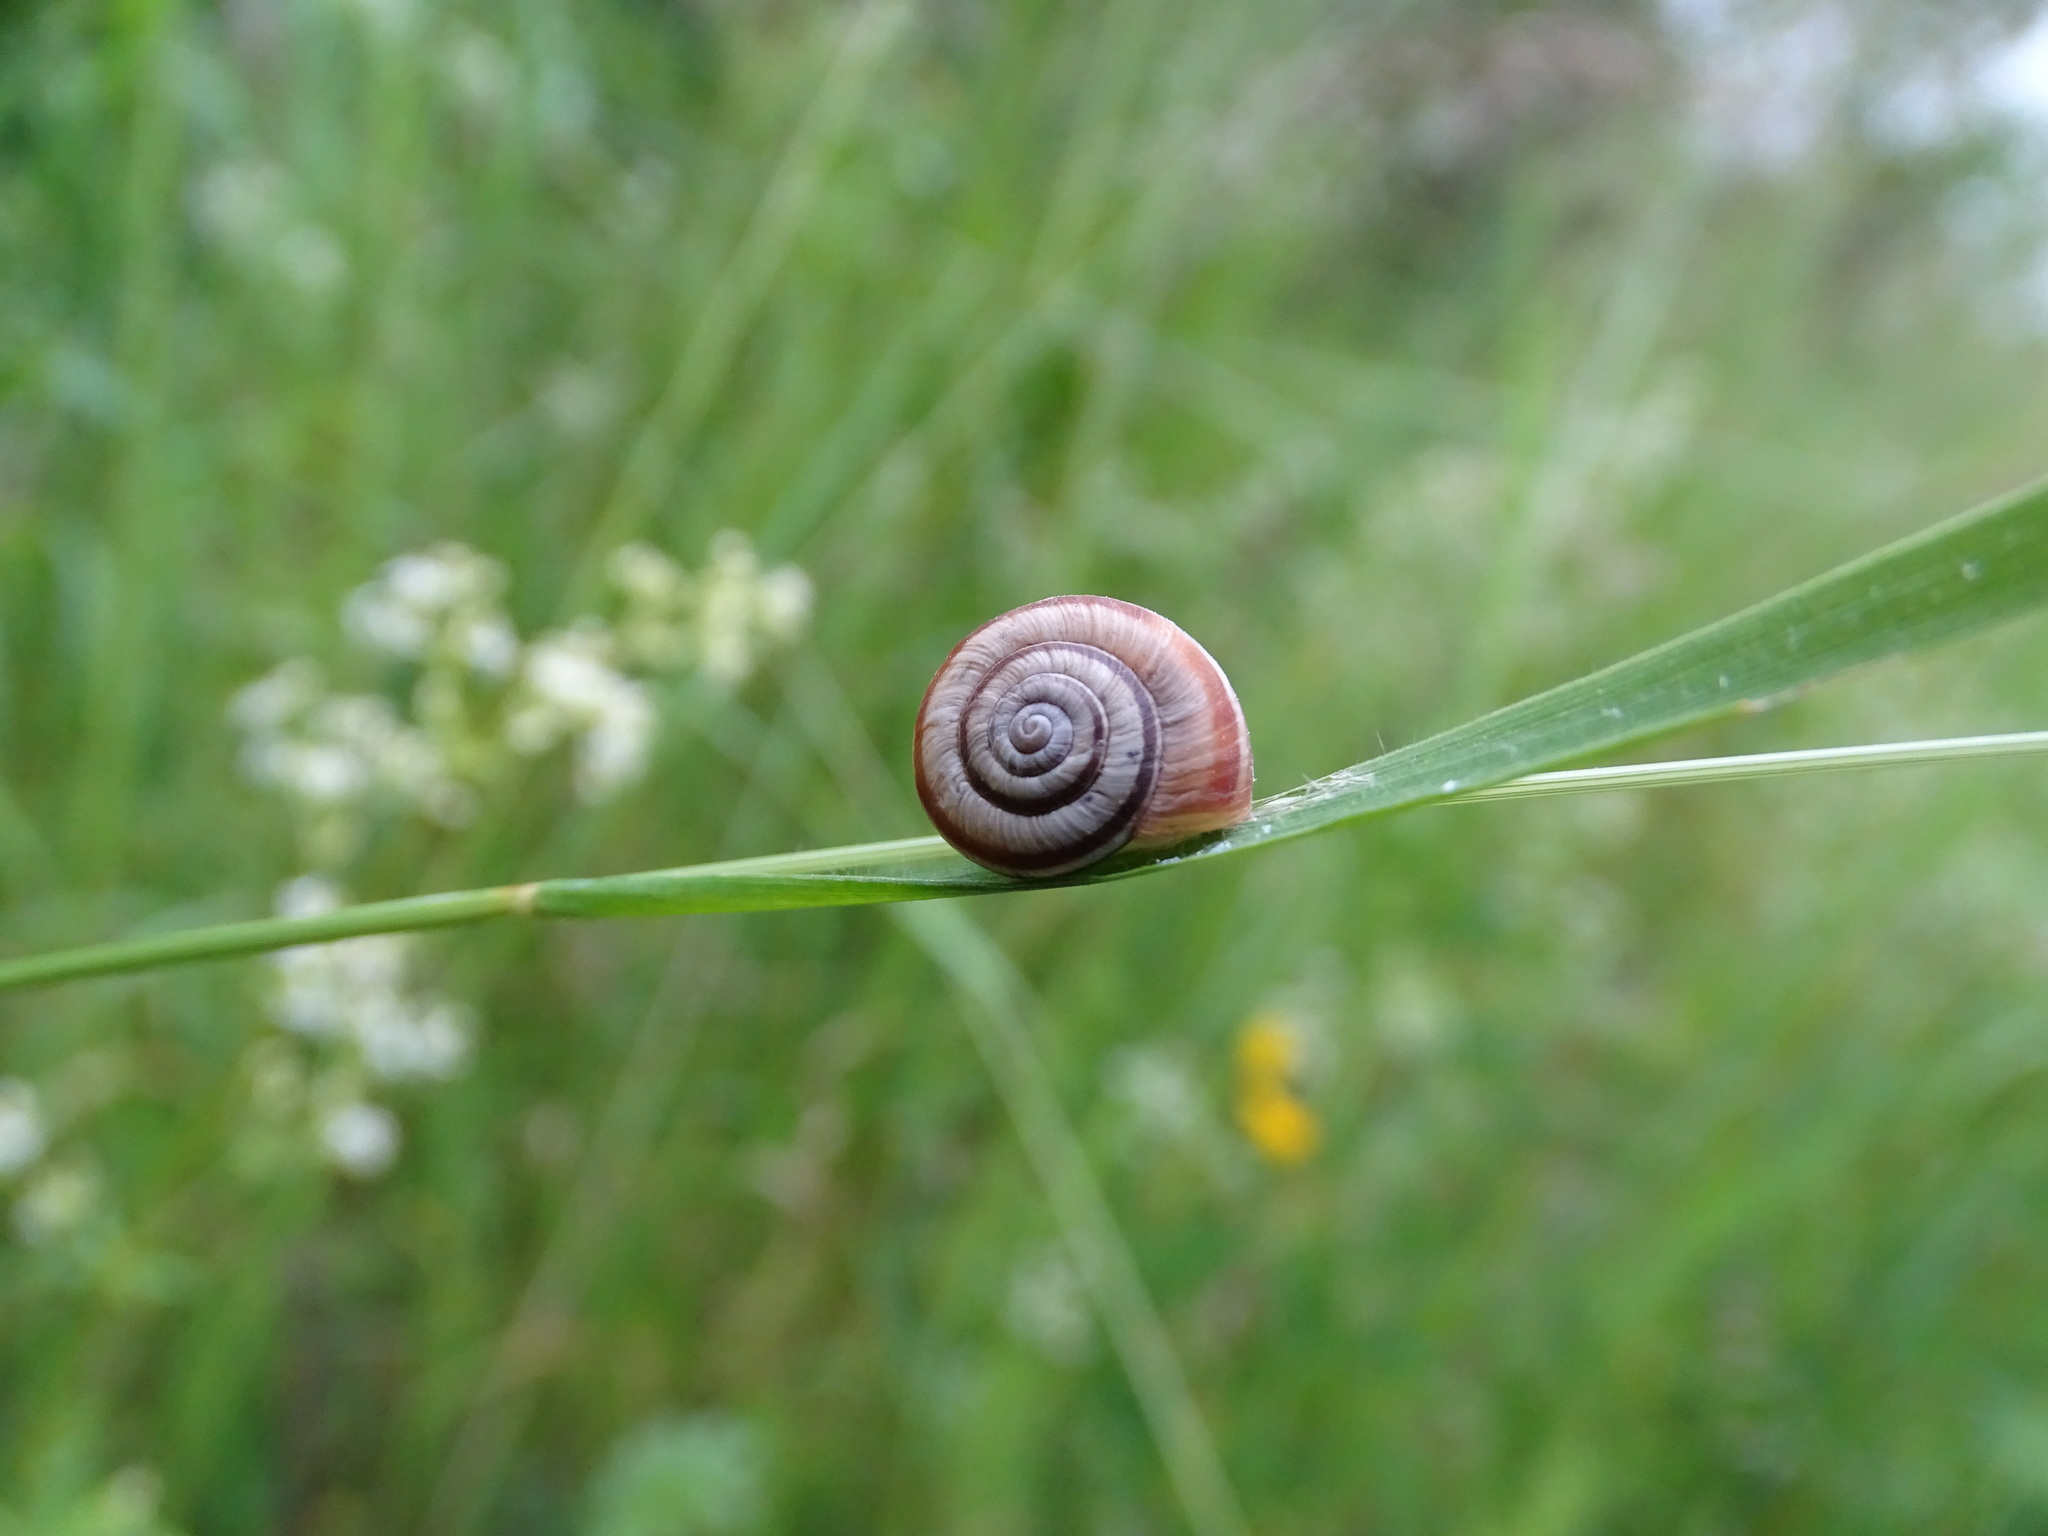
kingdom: Animalia
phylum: Mollusca
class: Gastropoda
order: Stylommatophora
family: Geomitridae
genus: Helicella
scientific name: Helicella itala
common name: Heath snail
